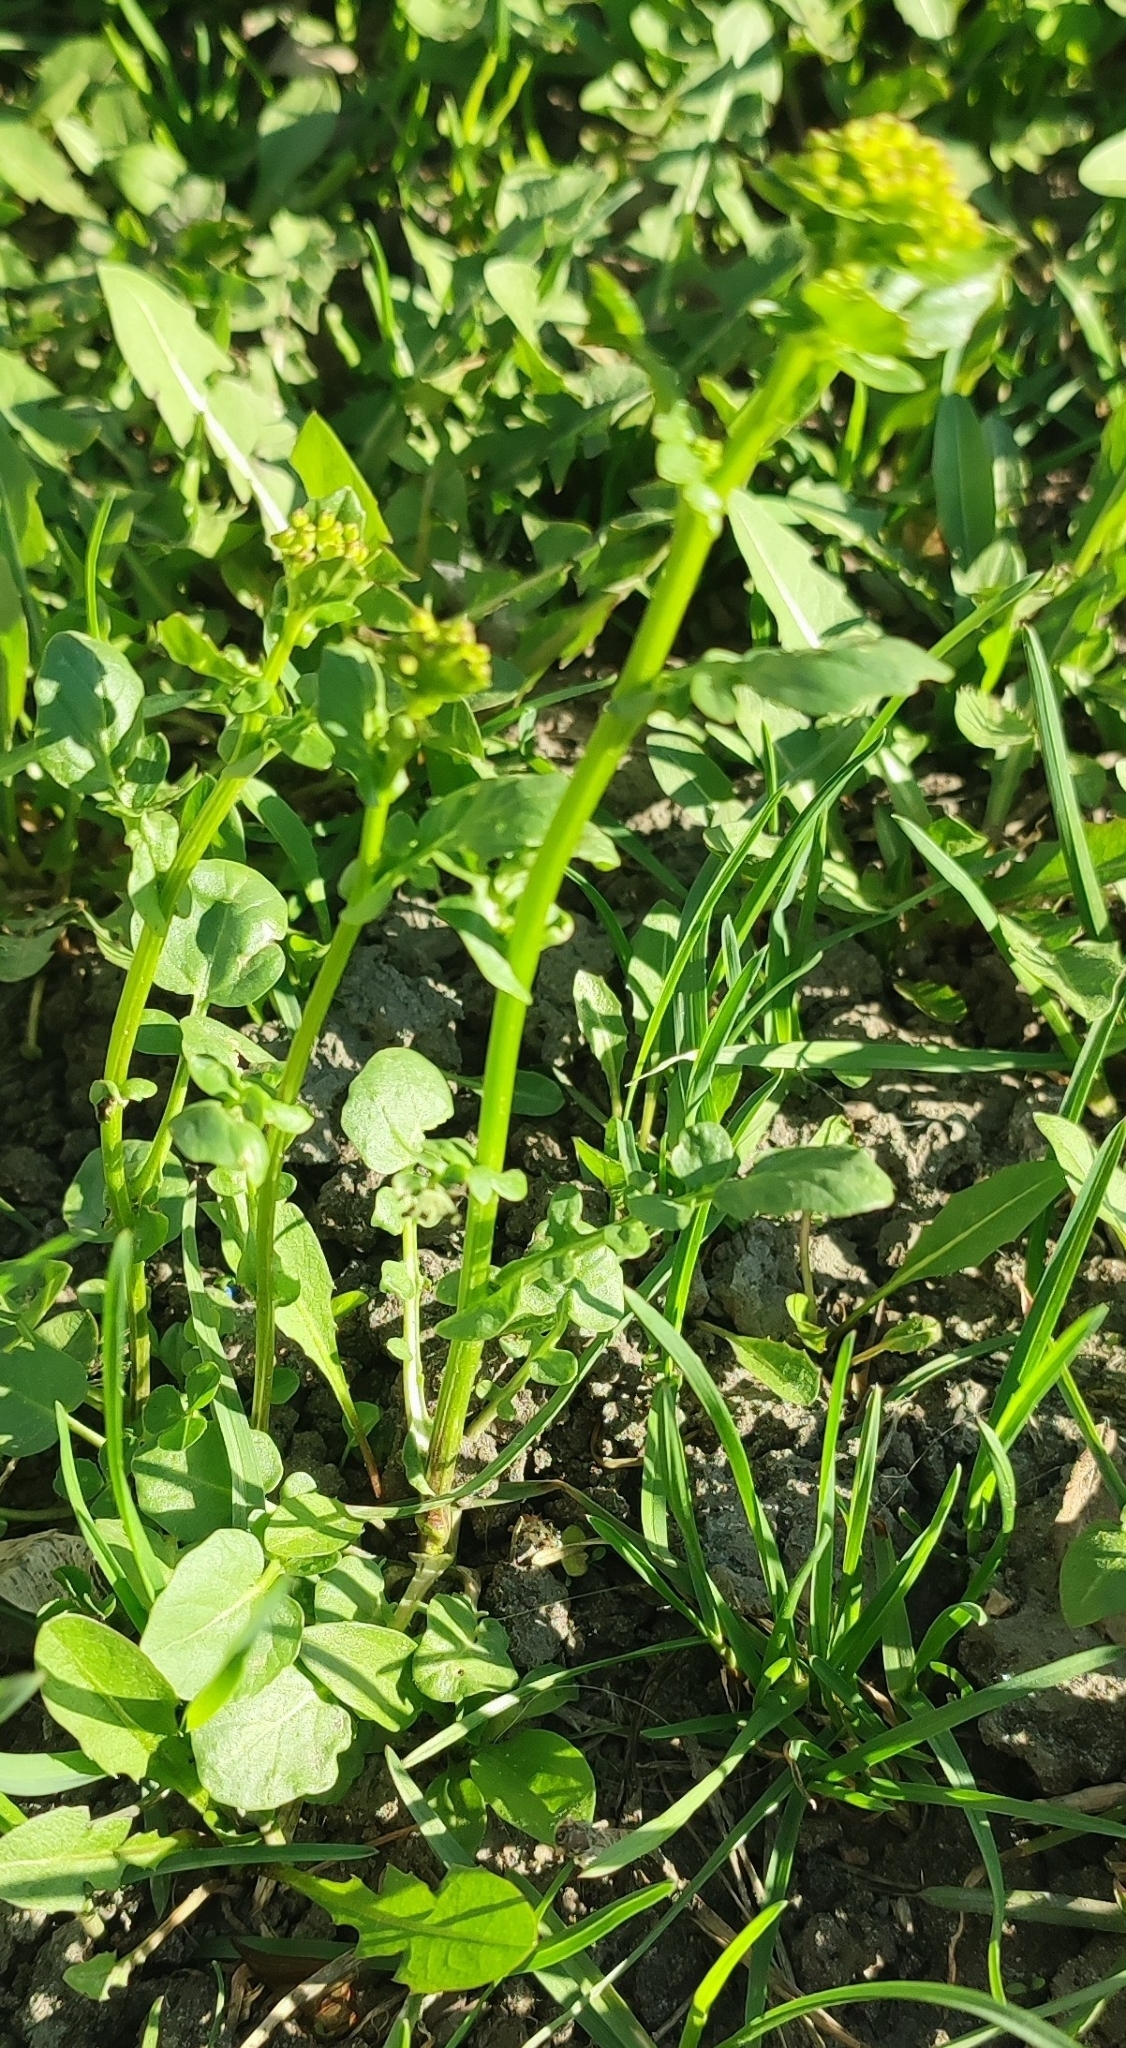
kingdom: Plantae
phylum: Tracheophyta
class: Magnoliopsida
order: Brassicales
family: Brassicaceae
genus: Barbarea
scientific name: Barbarea vulgaris
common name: Cressy-greens
